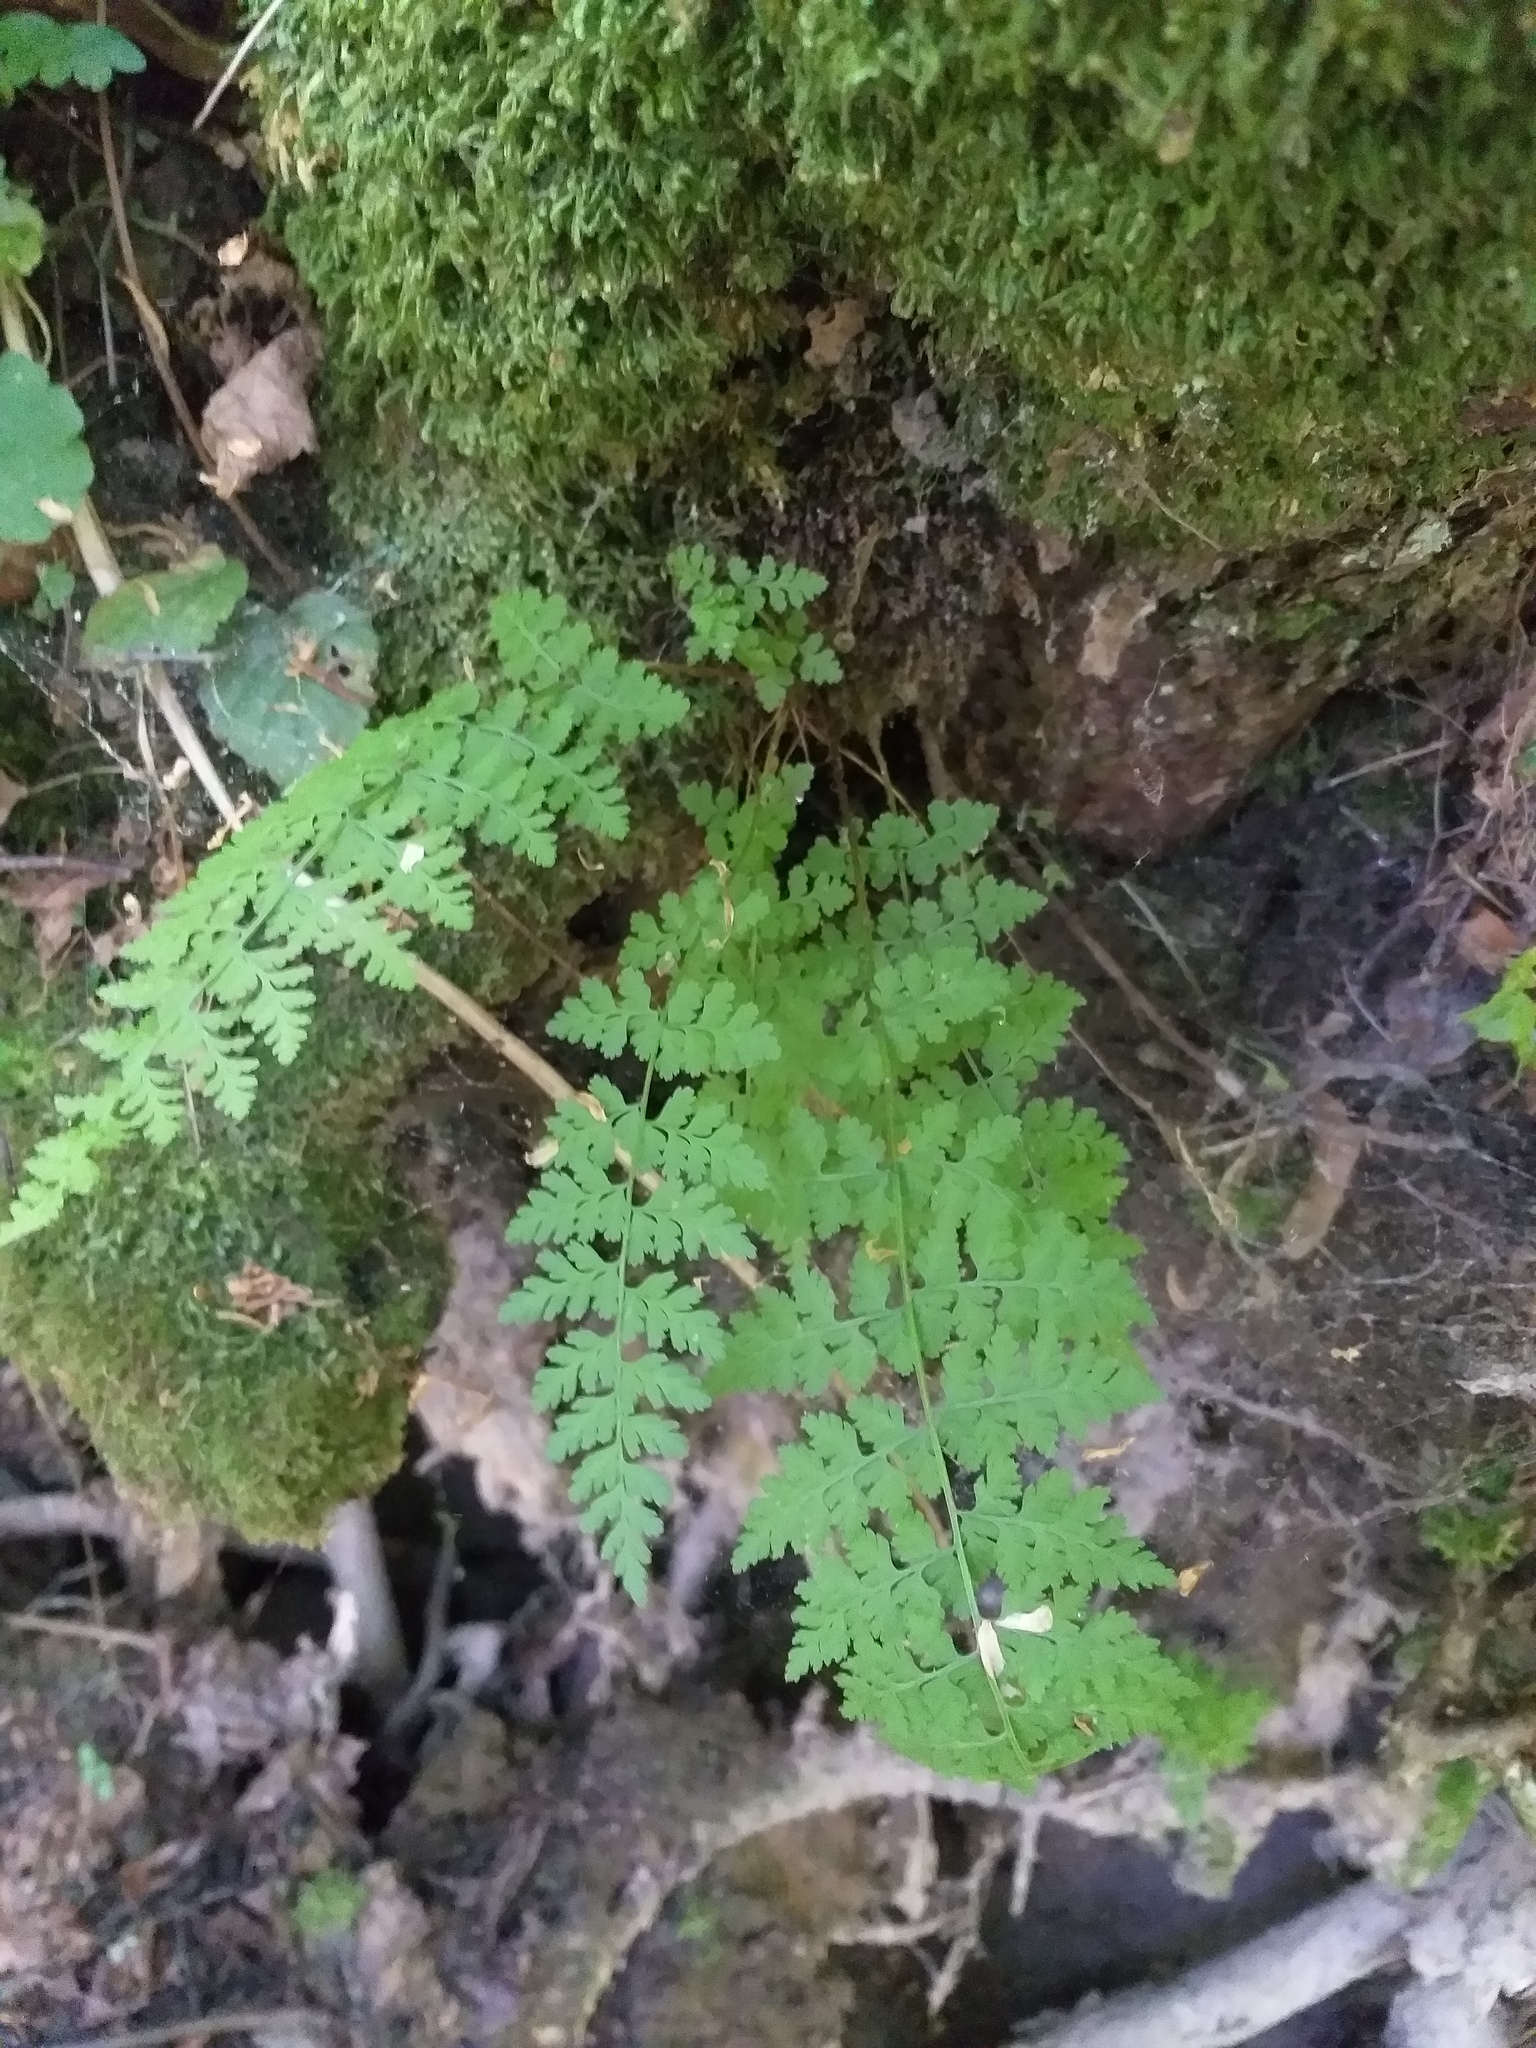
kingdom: Plantae
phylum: Tracheophyta
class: Polypodiopsida
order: Polypodiales
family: Cystopteridaceae
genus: Cystopteris
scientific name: Cystopteris fragilis
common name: Brittle bladder fern
